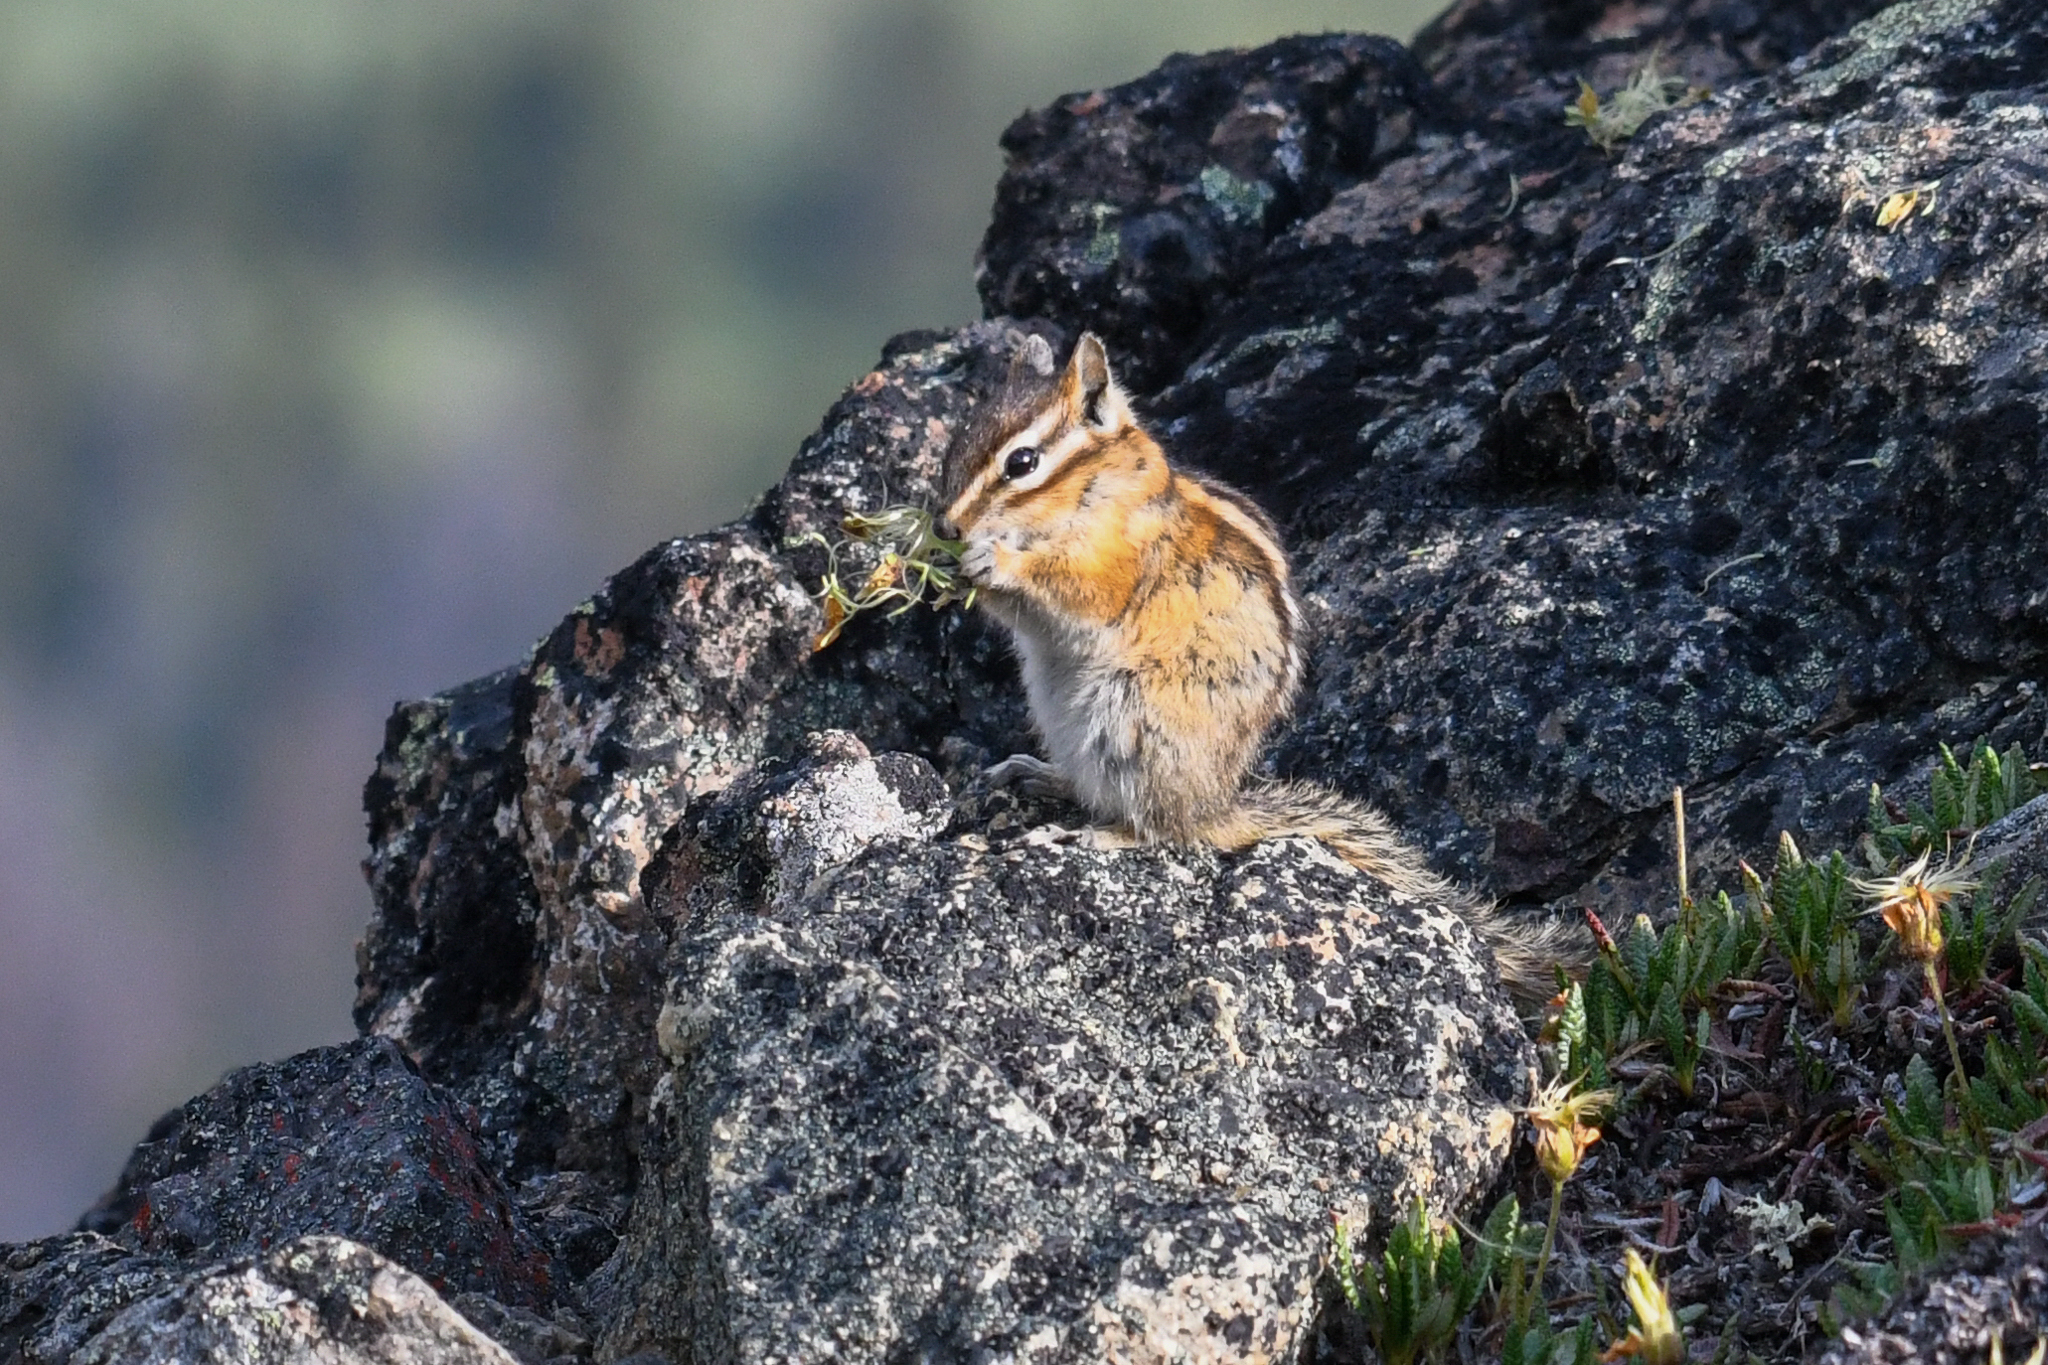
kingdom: Animalia
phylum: Chordata
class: Mammalia
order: Rodentia
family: Sciuridae
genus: Tamias
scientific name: Tamias amoenus
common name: Yellow-pine chipmunk
